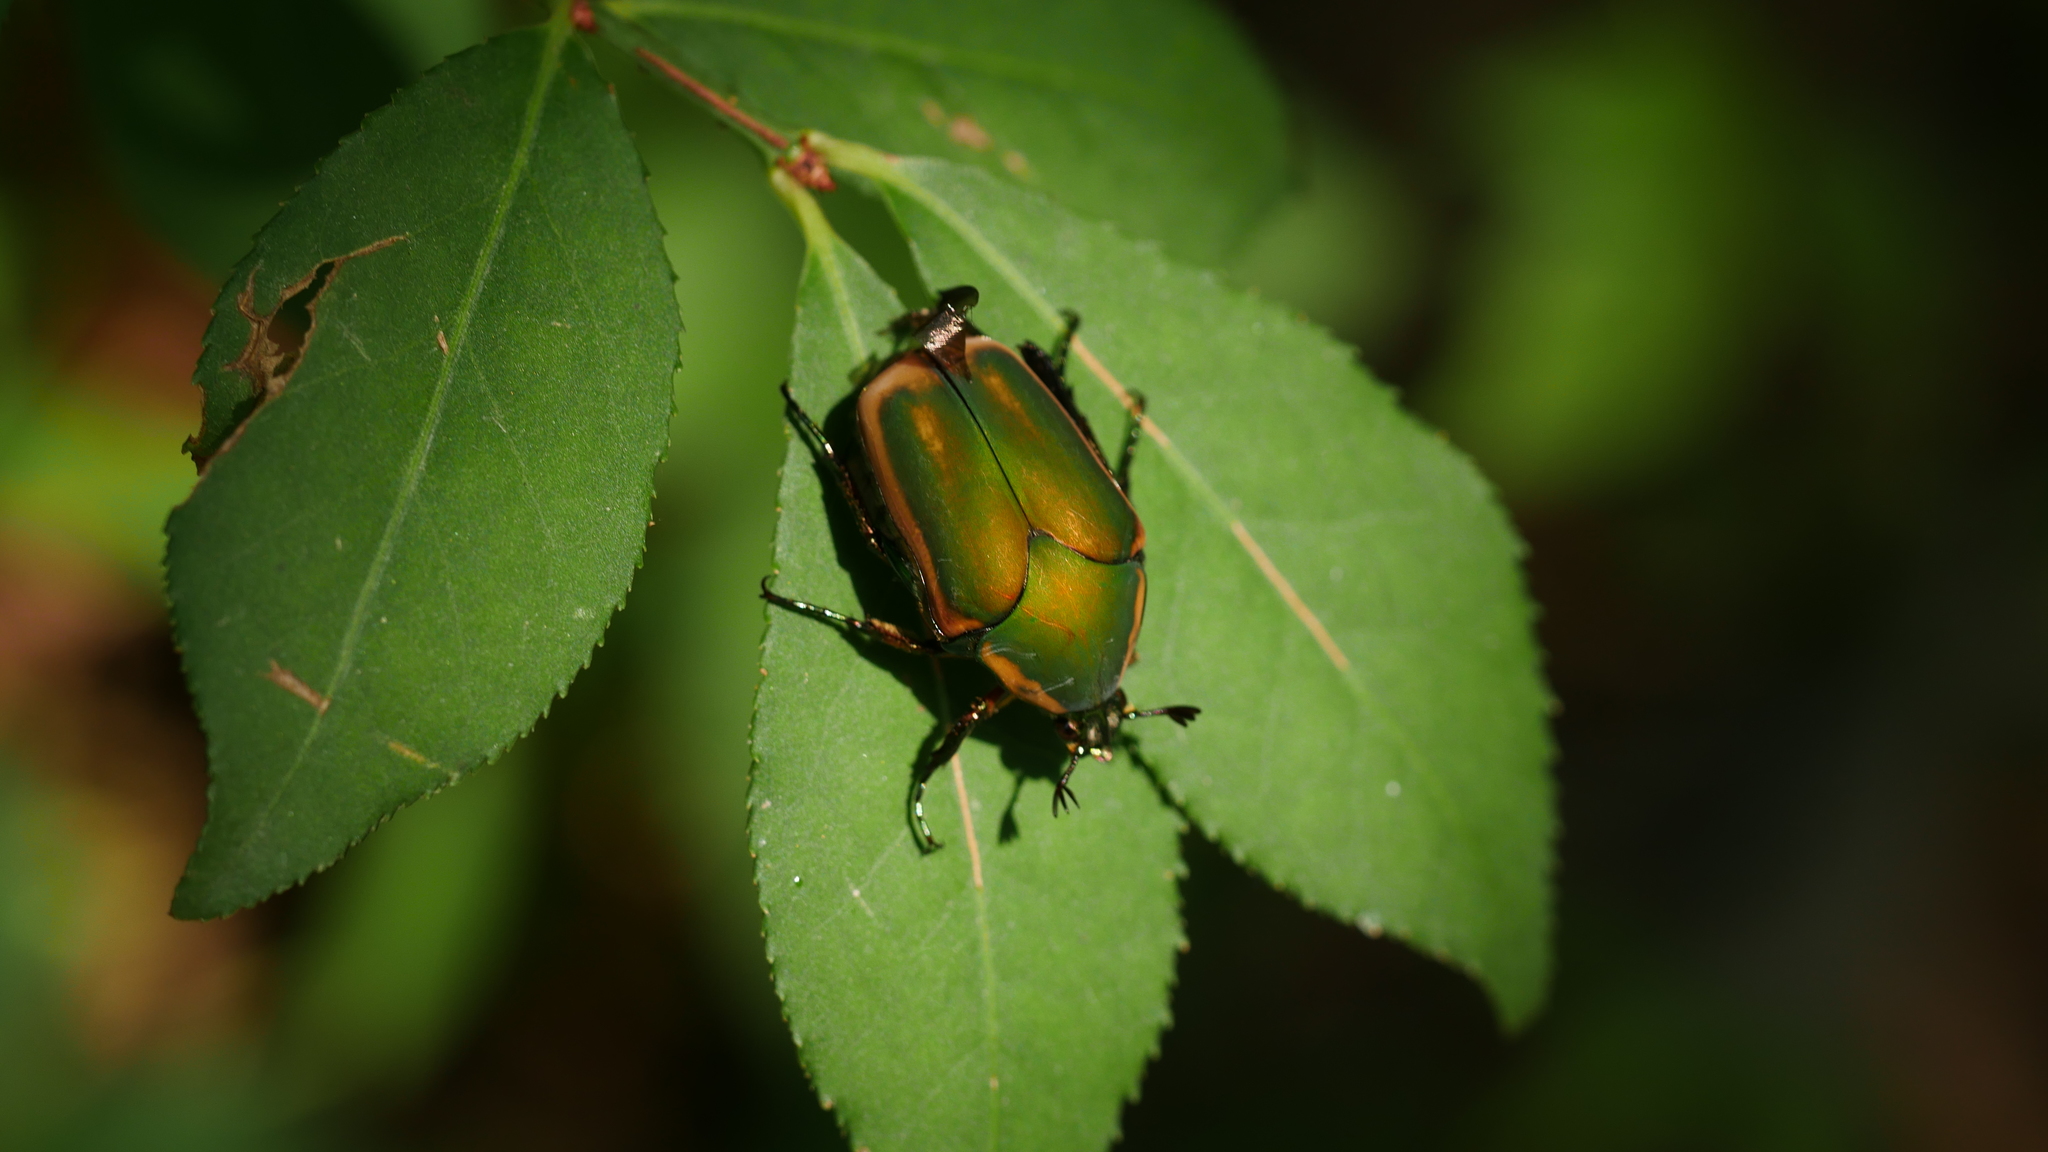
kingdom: Animalia
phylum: Arthropoda
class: Insecta
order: Coleoptera
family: Scarabaeidae
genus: Cotinis
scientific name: Cotinis nitida
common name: Common green june beetle
